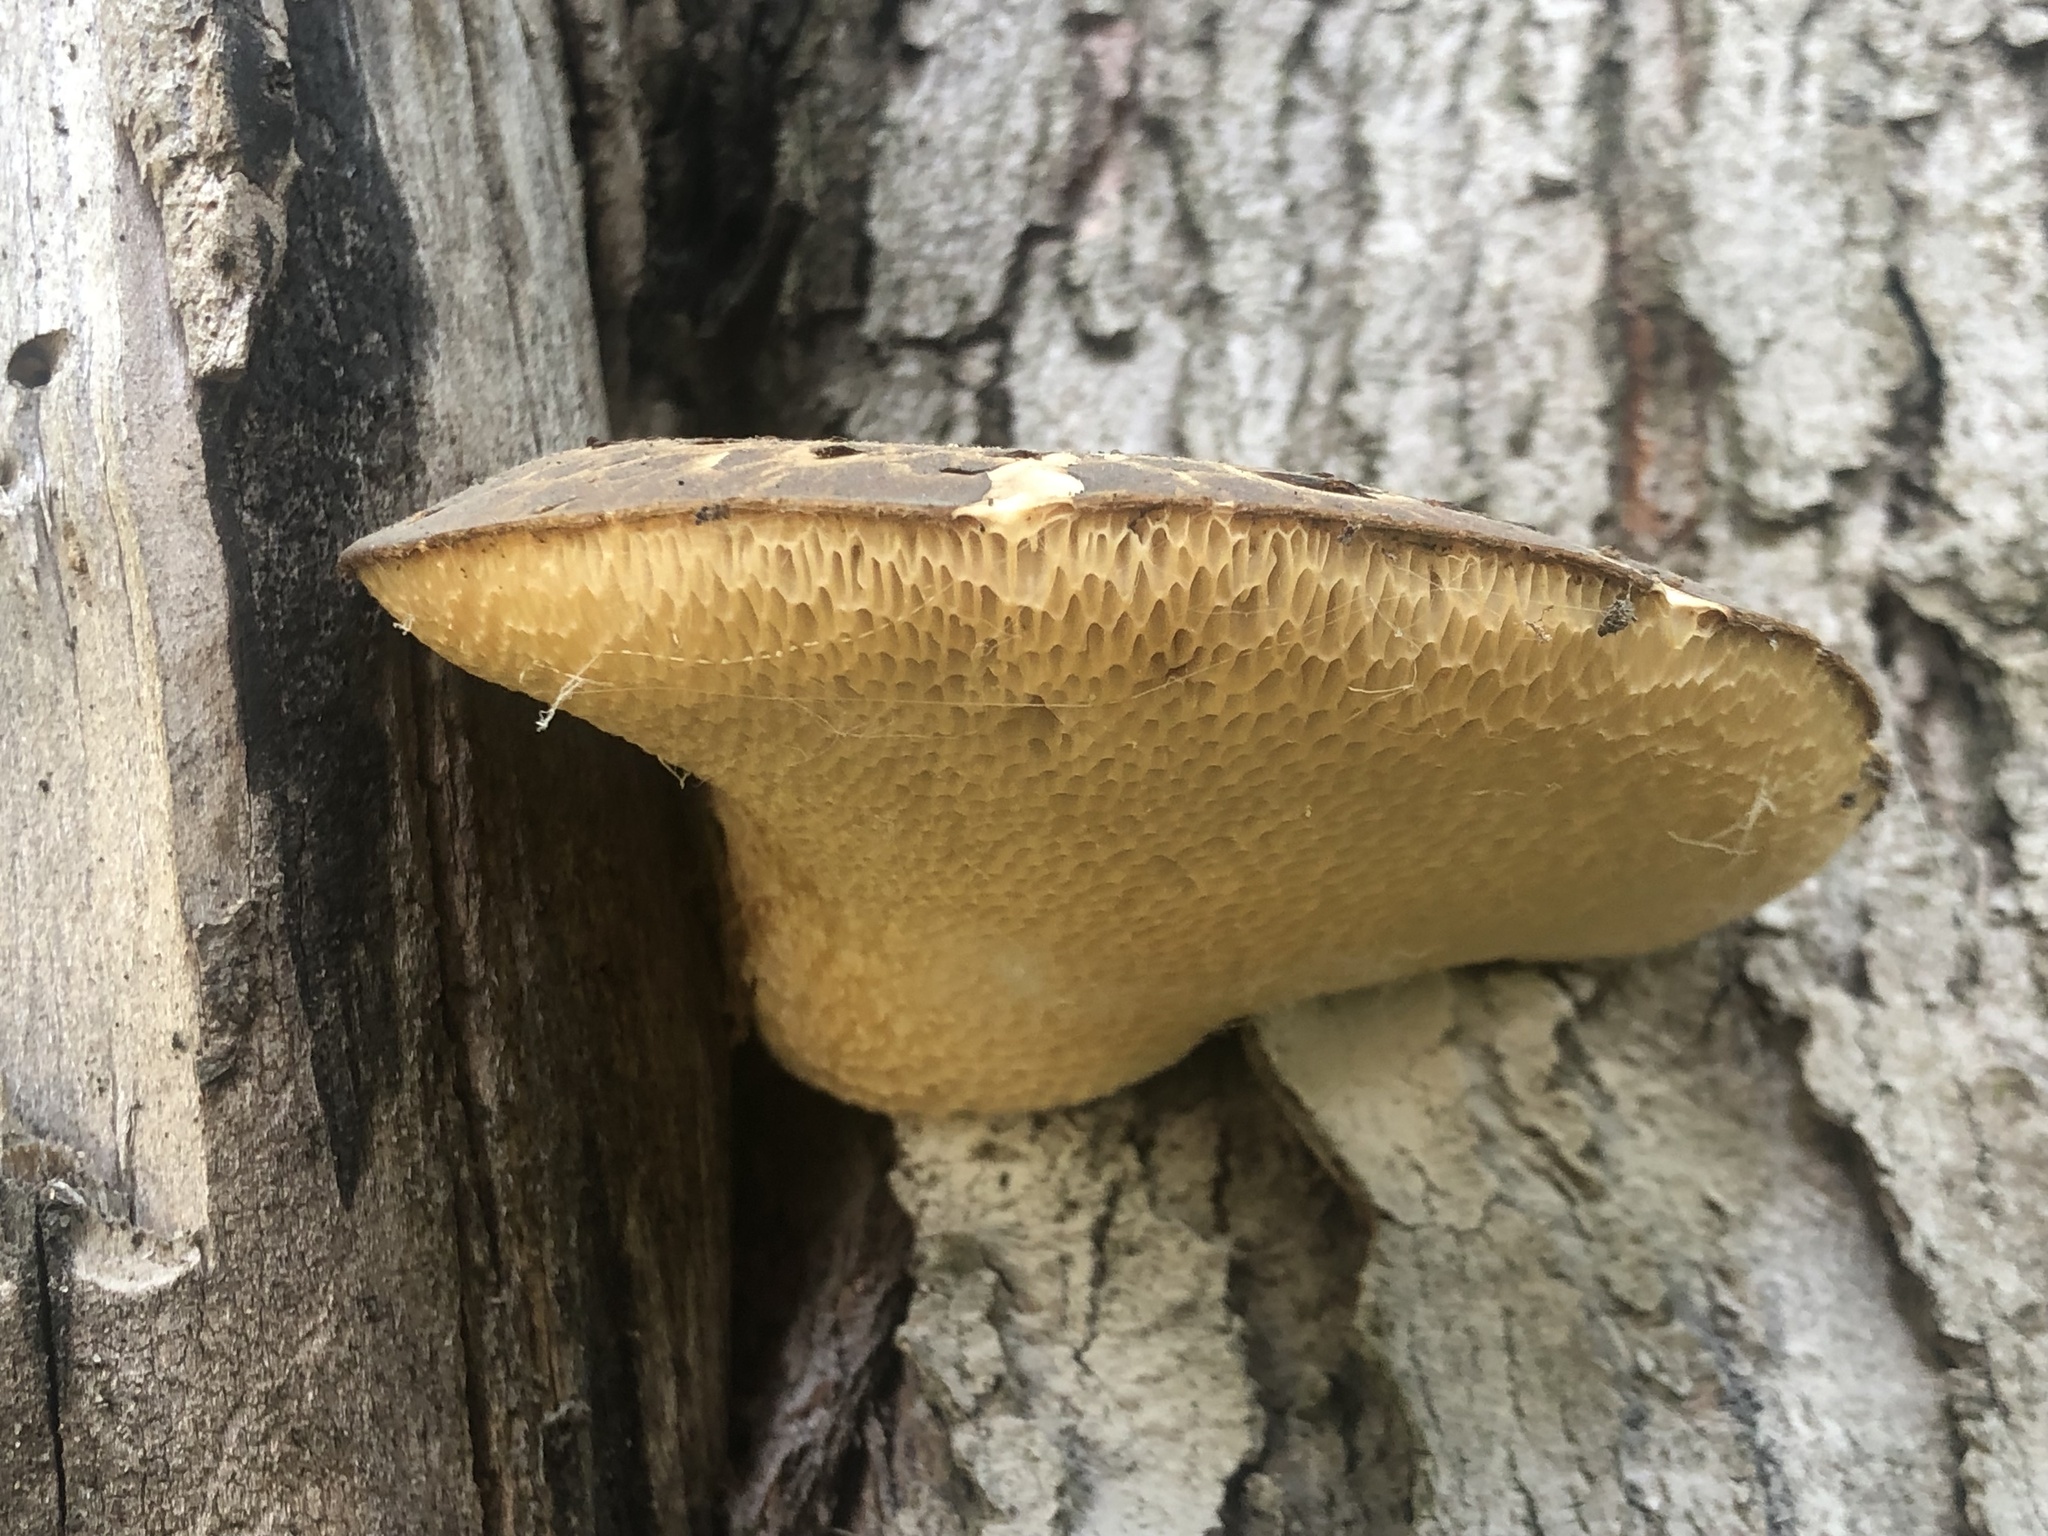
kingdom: Fungi
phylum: Basidiomycota
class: Agaricomycetes
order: Polyporales
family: Polyporaceae
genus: Cerioporus
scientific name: Cerioporus squamosus
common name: Dryad's saddle
